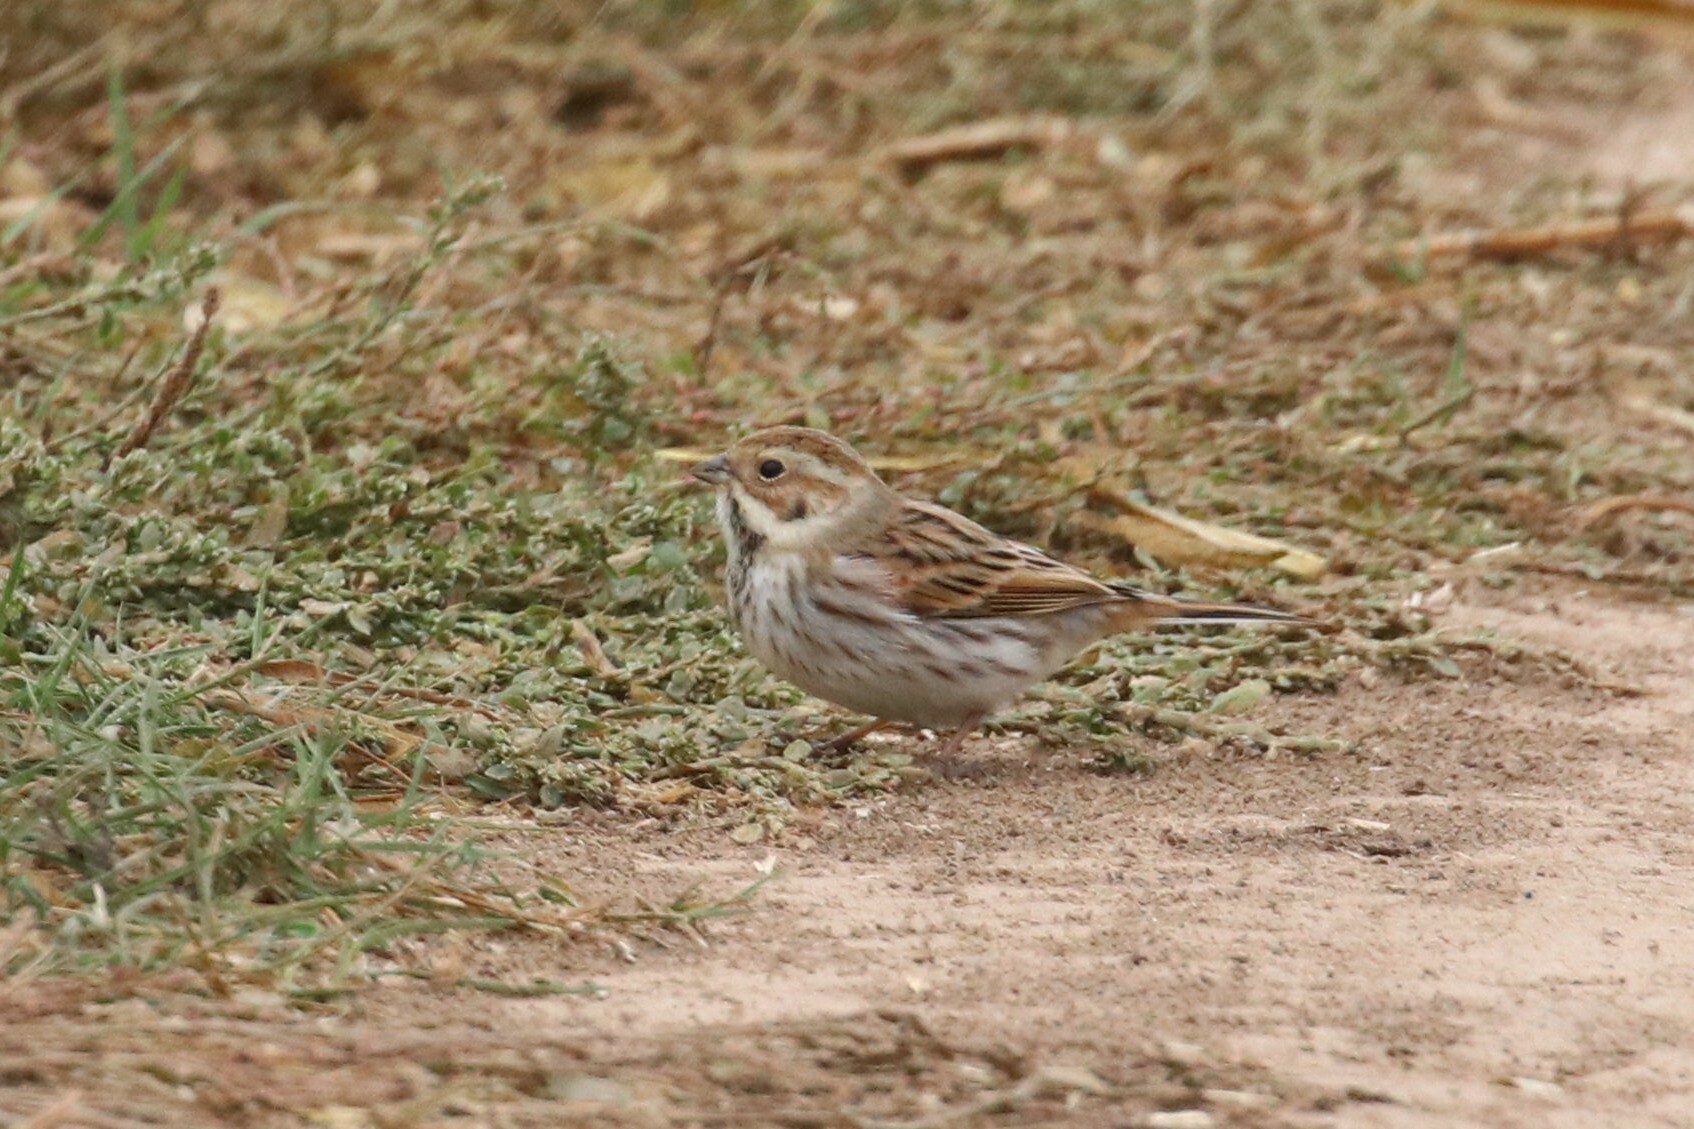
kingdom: Animalia
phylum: Chordata
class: Aves
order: Passeriformes
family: Emberizidae
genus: Emberiza
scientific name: Emberiza schoeniclus
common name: Reed bunting
